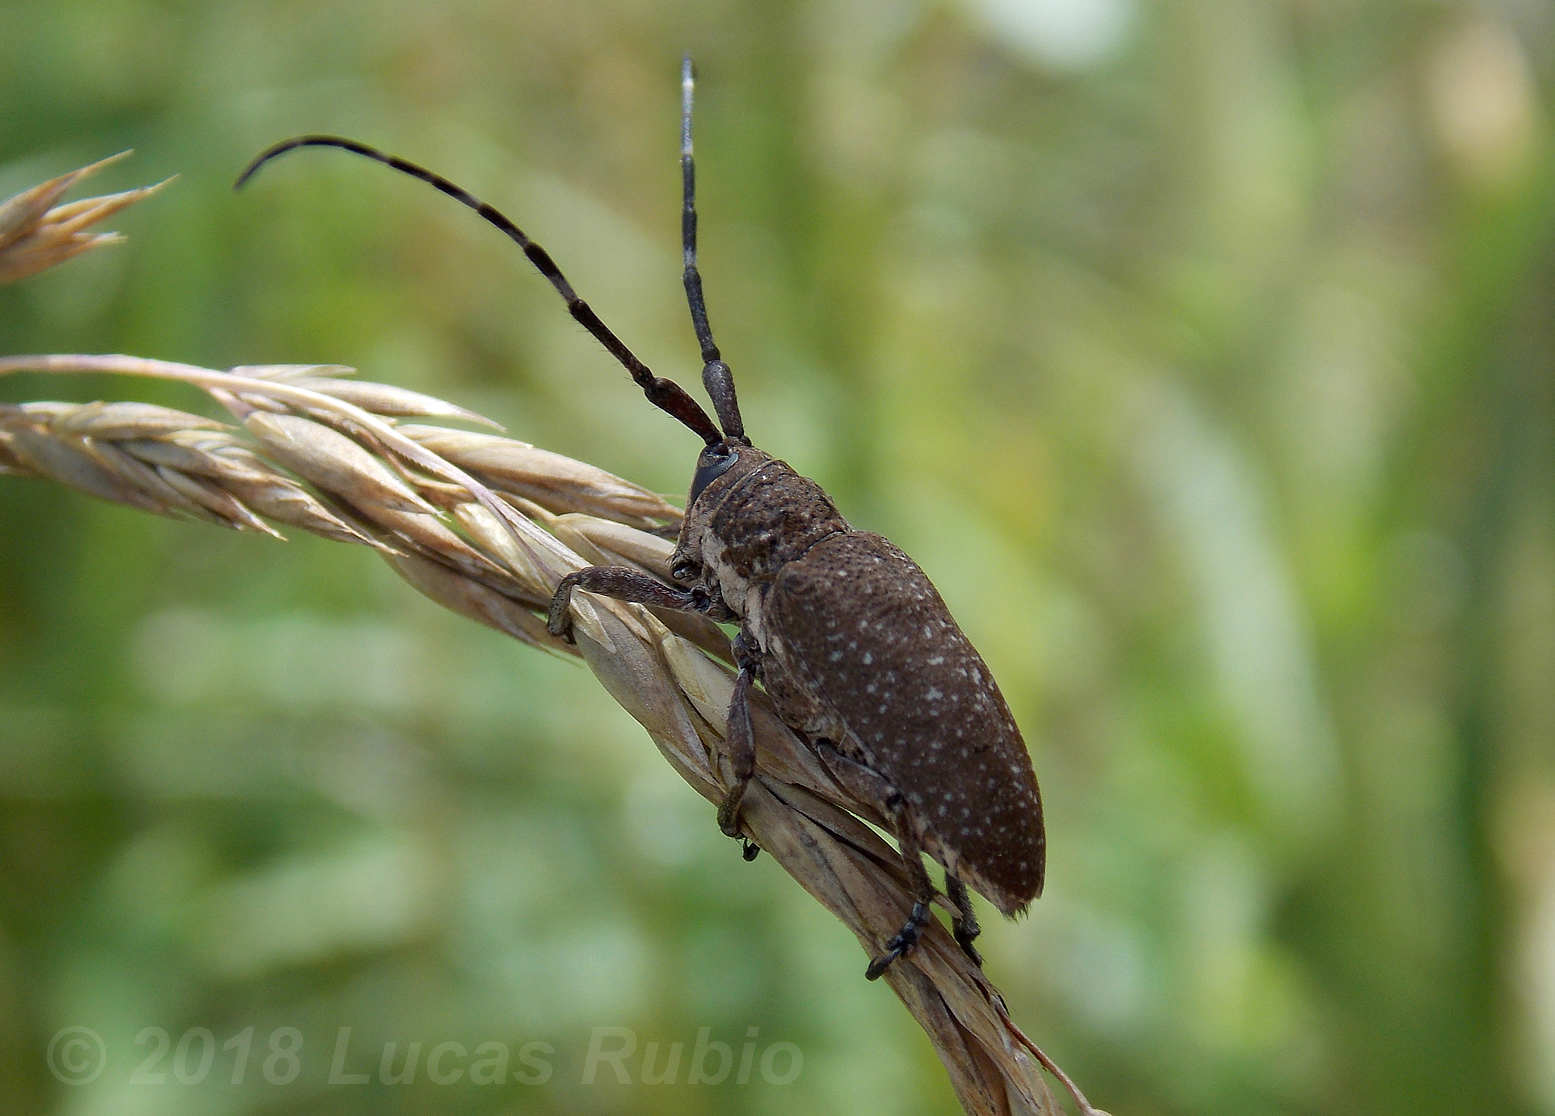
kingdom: Animalia
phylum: Arthropoda
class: Insecta
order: Coleoptera
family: Cerambycidae
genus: Neodillonia
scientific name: Neodillonia albisparsa
